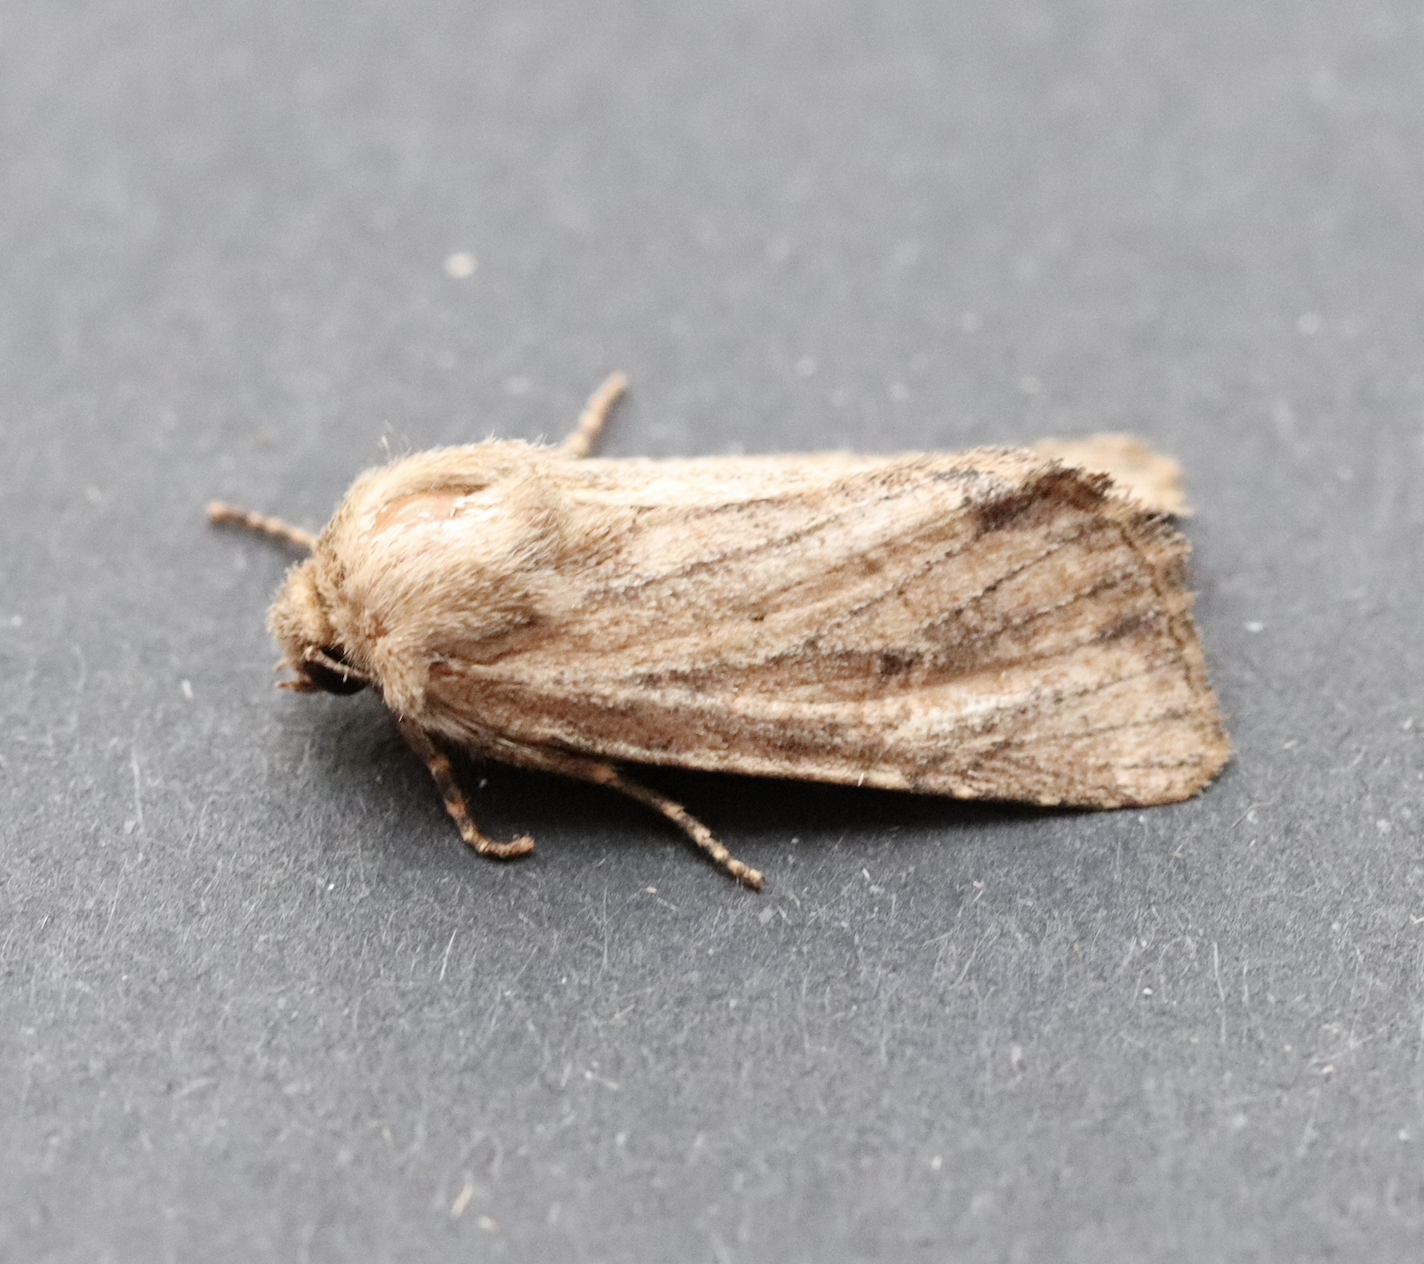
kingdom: Animalia
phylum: Arthropoda
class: Insecta
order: Lepidoptera
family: Noctuidae
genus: Luperina
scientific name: Luperina testacea
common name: Flounced rustic
